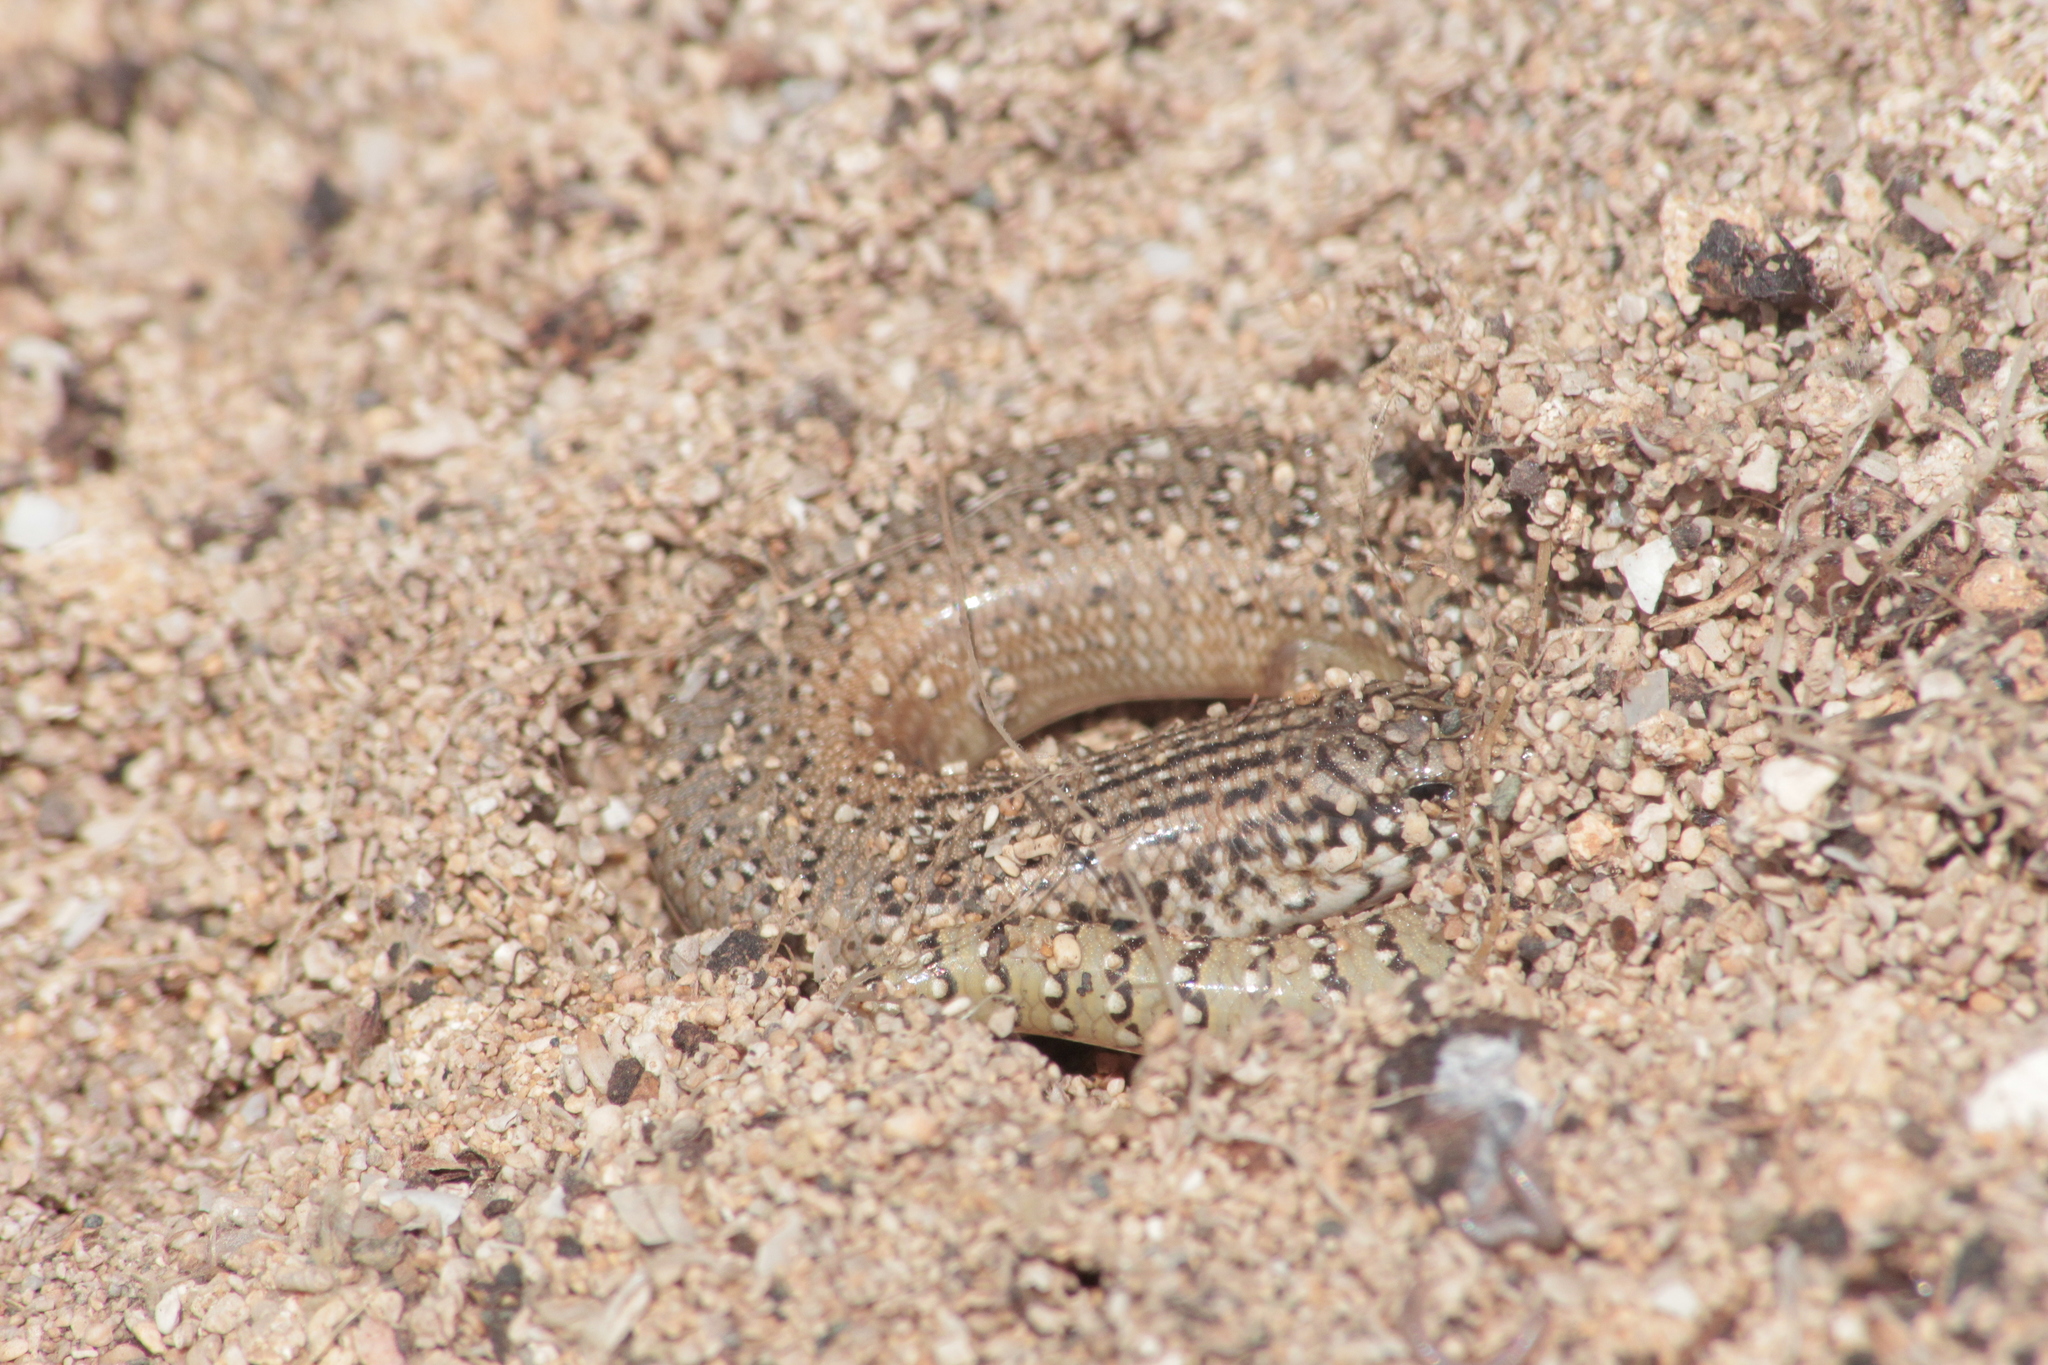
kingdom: Animalia
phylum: Chordata
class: Squamata
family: Scincidae
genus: Chalcides
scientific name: Chalcides ocellatus
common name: Ocellated skink
